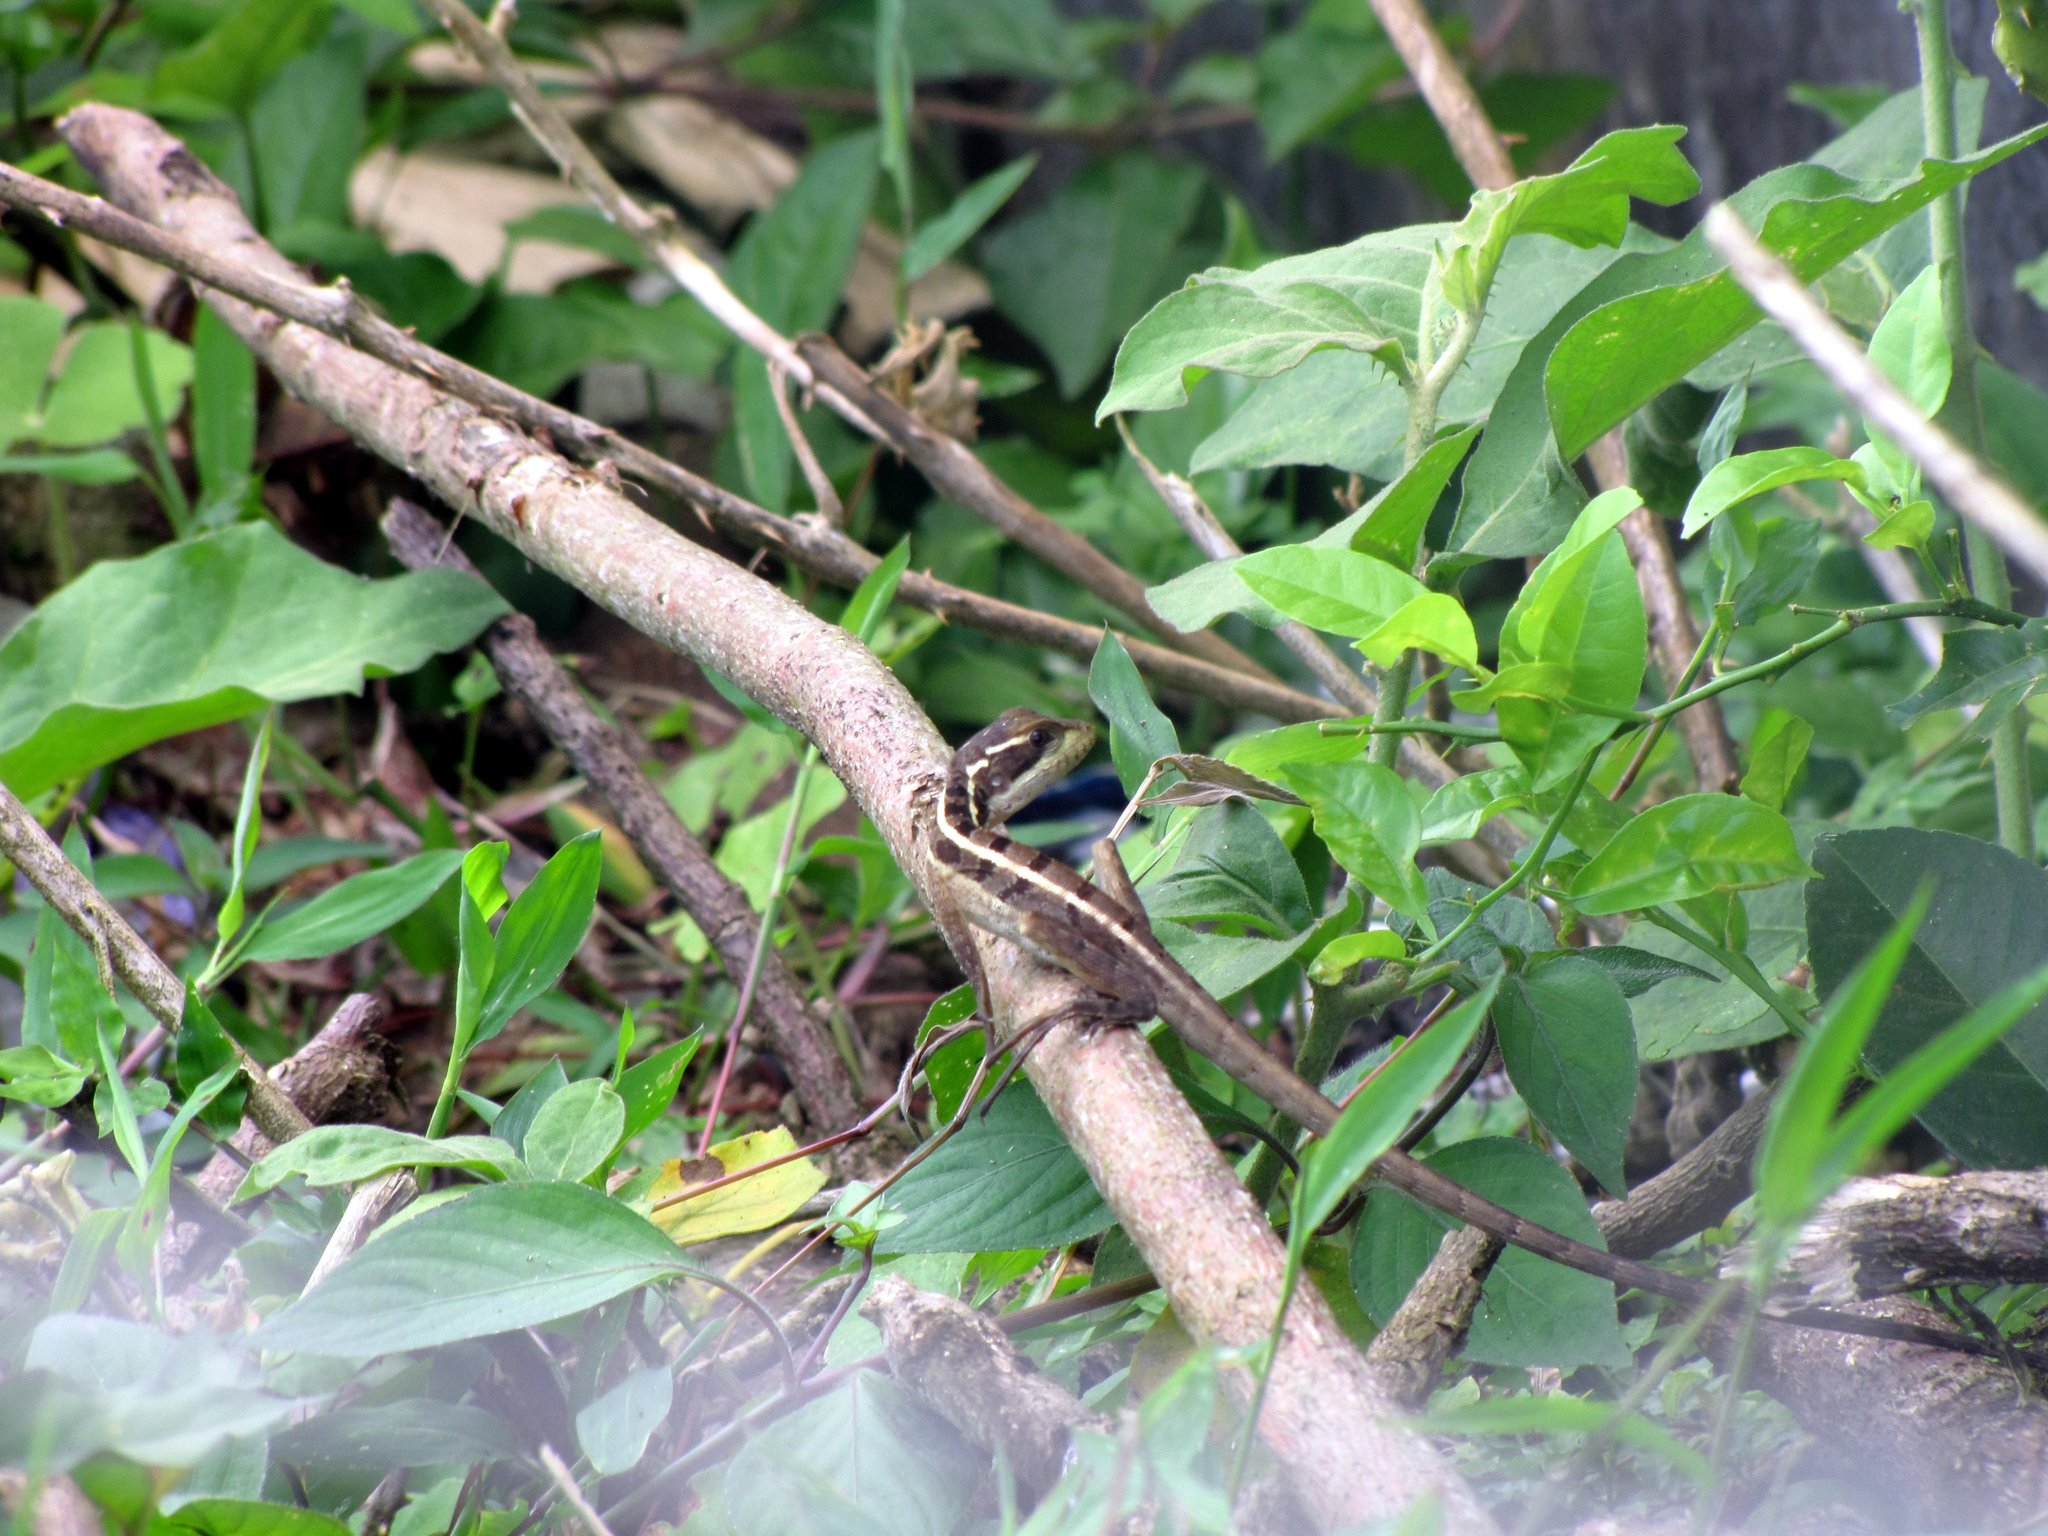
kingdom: Animalia
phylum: Chordata
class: Squamata
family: Corytophanidae
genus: Basiliscus
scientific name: Basiliscus vittatus
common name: Brown basilisk
